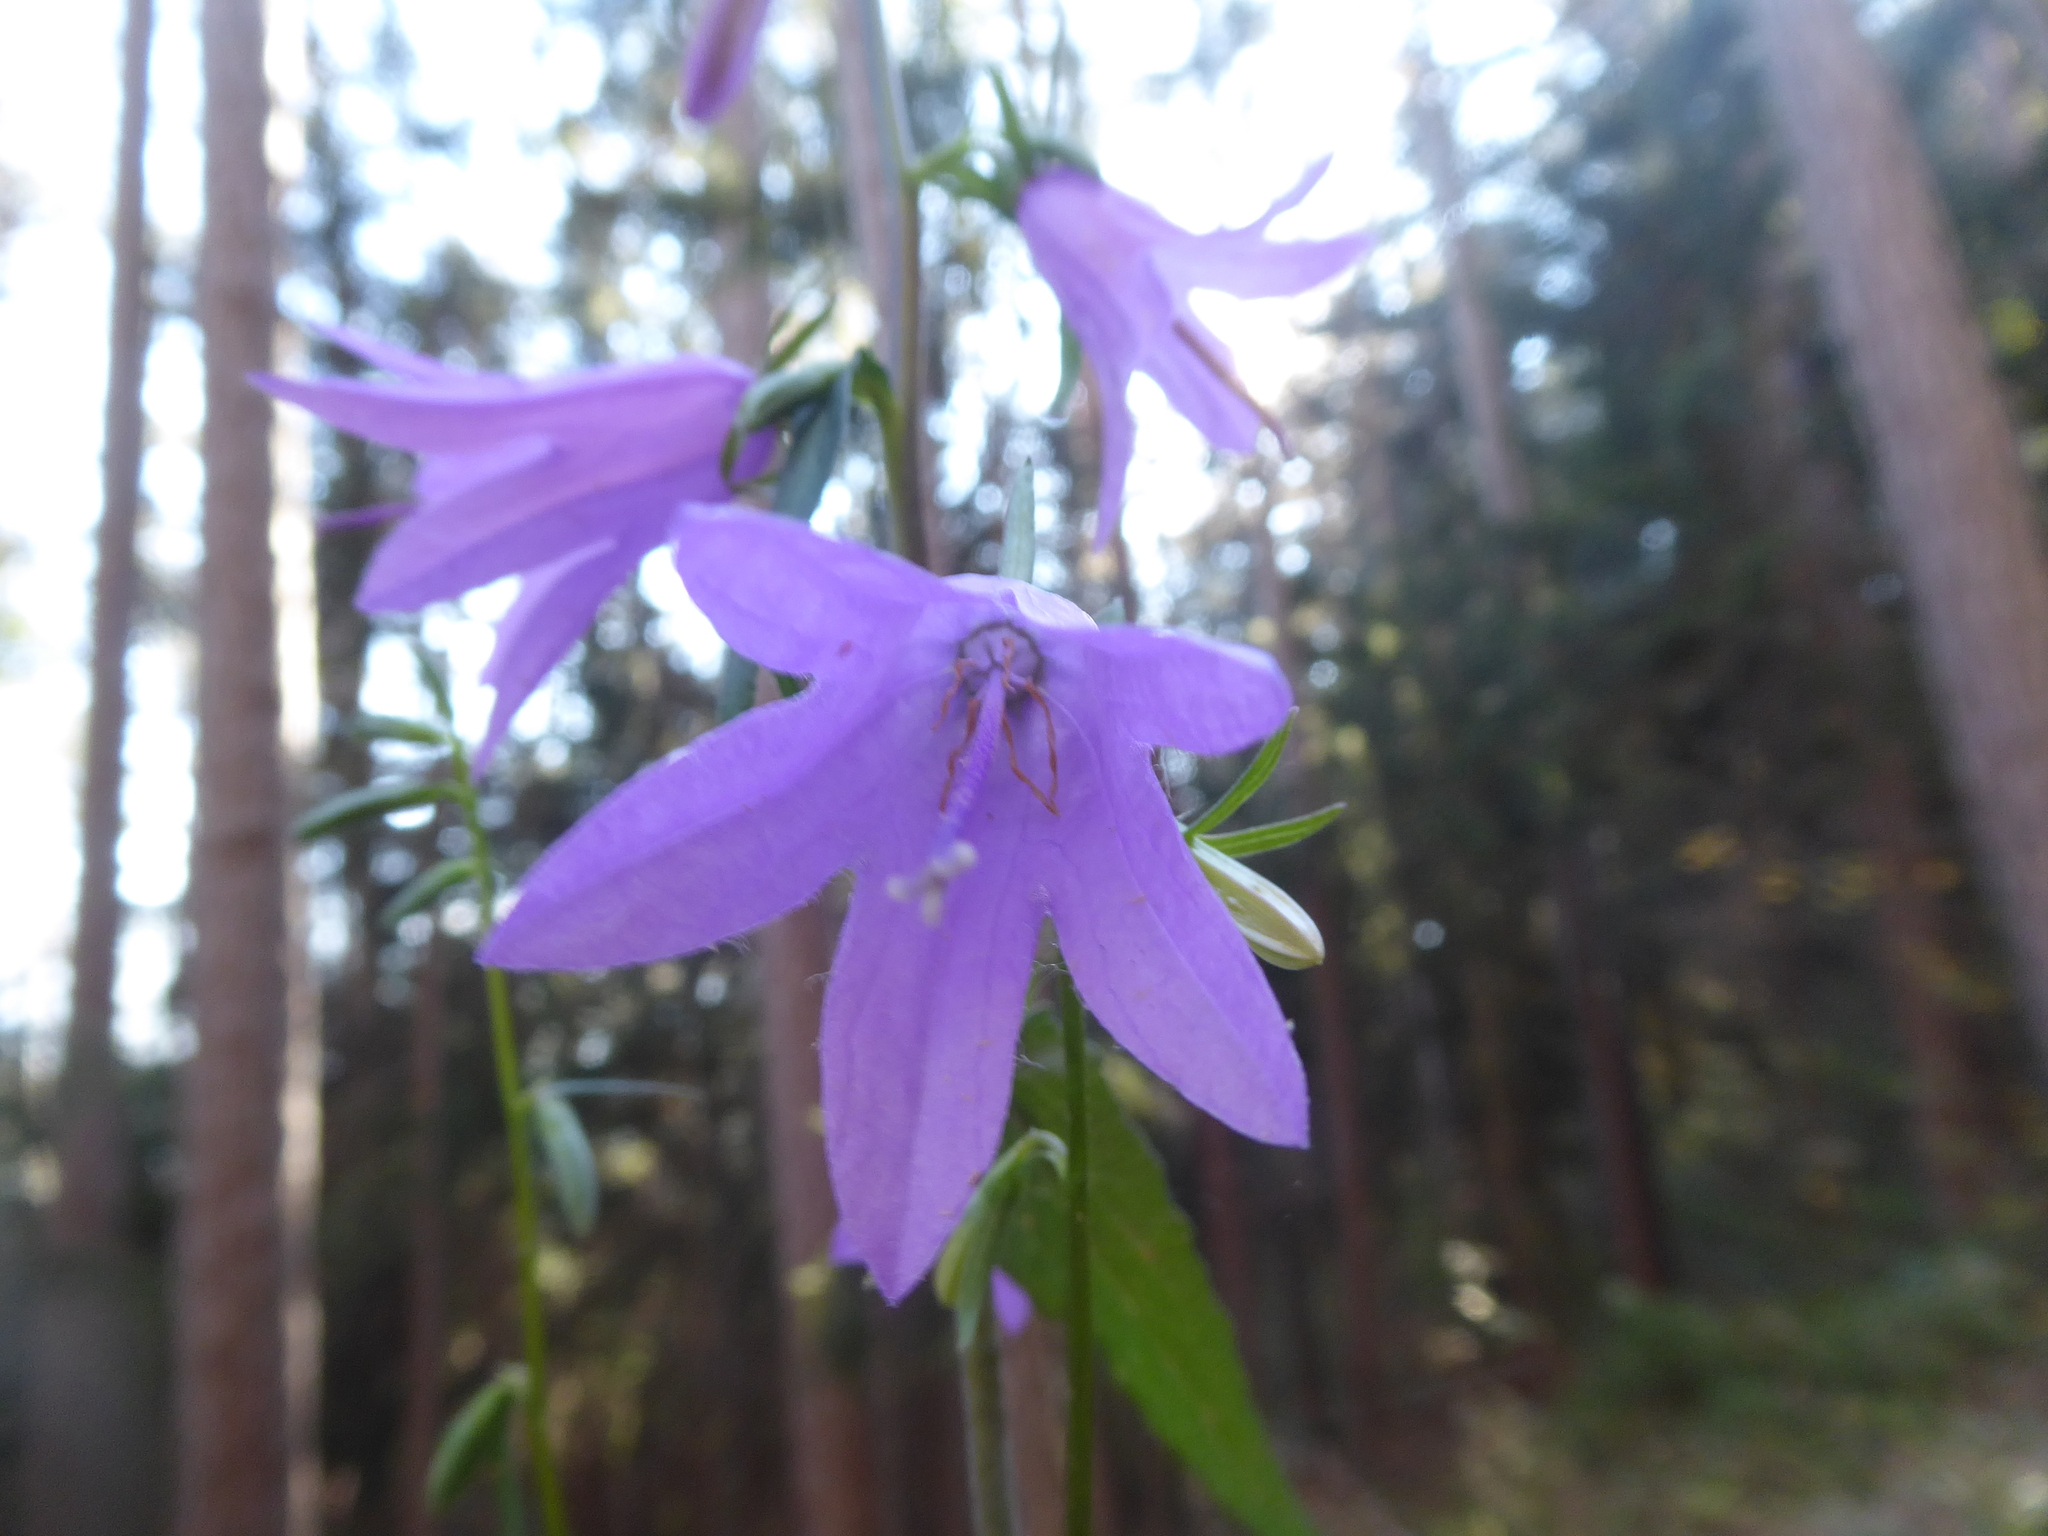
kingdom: Plantae
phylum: Tracheophyta
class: Magnoliopsida
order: Asterales
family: Campanulaceae
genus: Campanula
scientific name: Campanula rapunculoides
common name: Creeping bellflower
